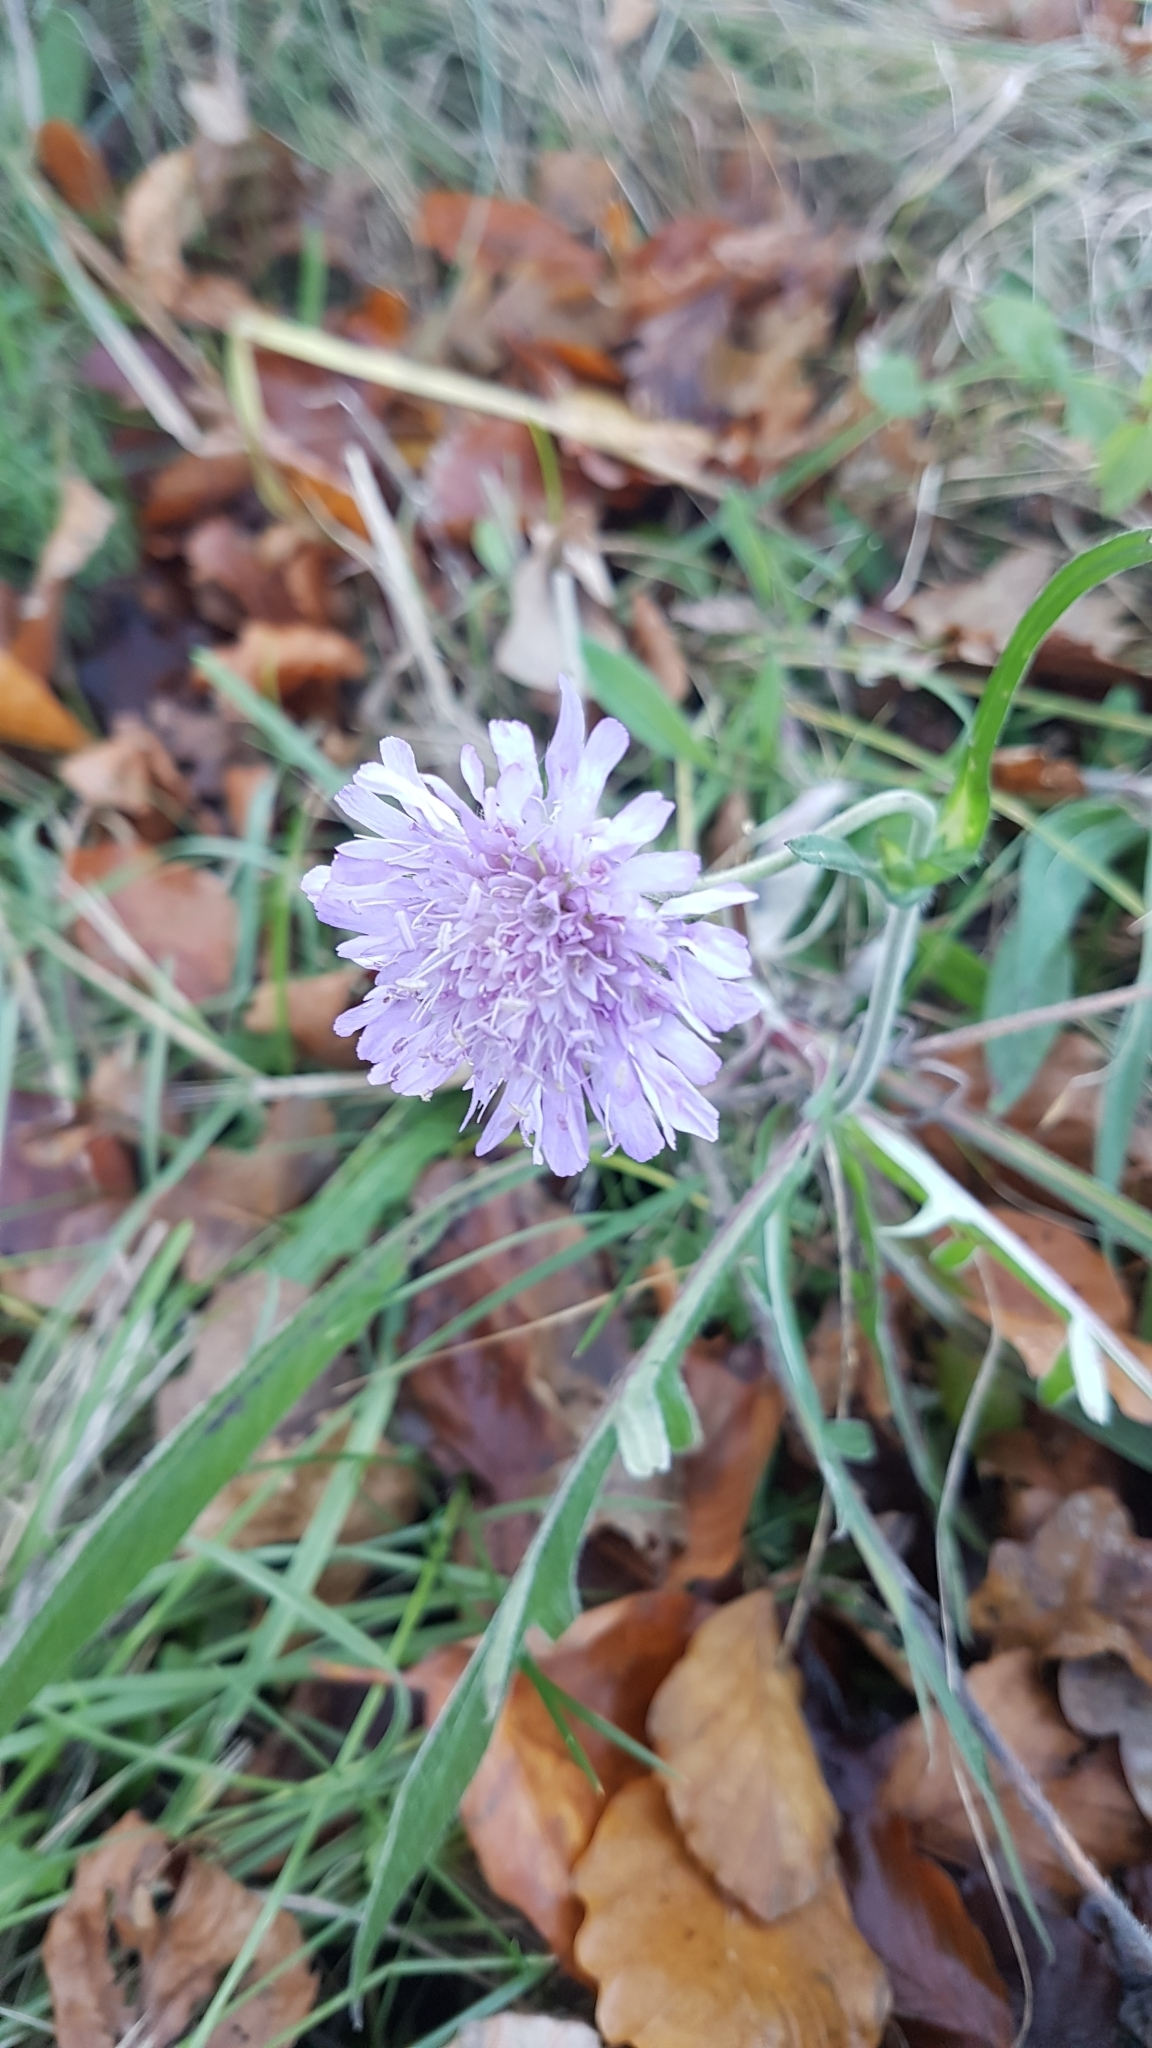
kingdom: Plantae
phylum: Tracheophyta
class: Magnoliopsida
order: Dipsacales
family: Caprifoliaceae
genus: Knautia
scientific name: Knautia arvensis
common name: Field scabiosa
